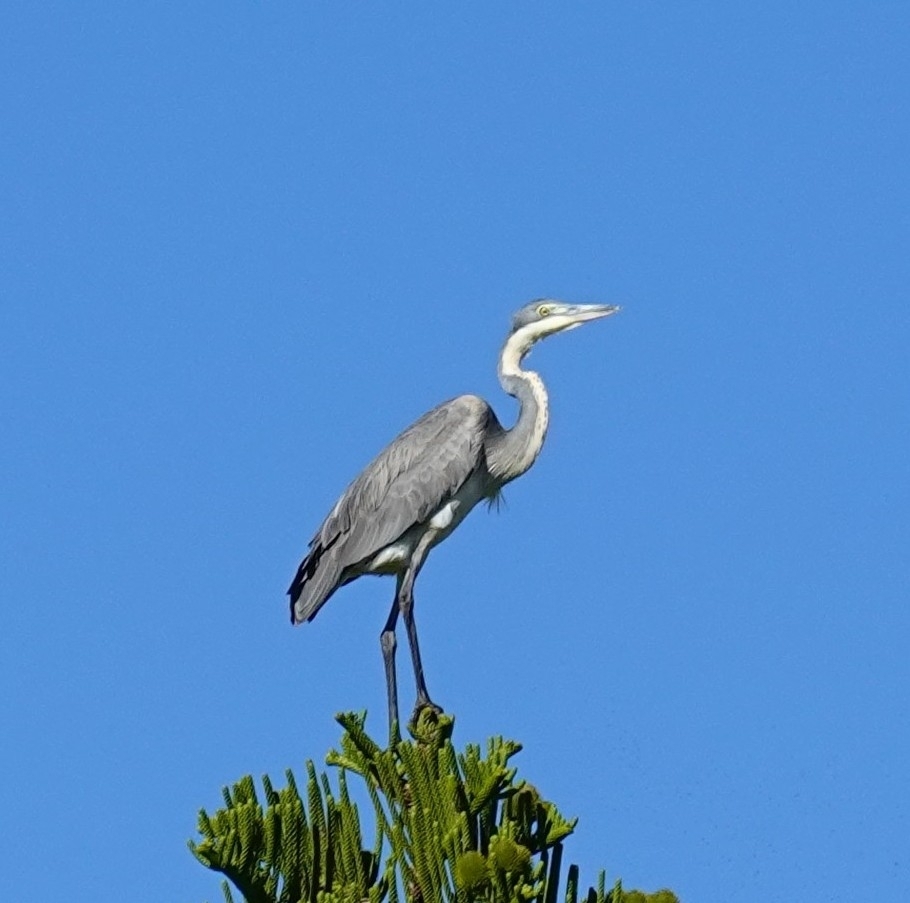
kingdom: Animalia
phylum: Chordata
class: Aves
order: Pelecaniformes
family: Ardeidae
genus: Ardea
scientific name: Ardea melanocephala
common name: Black-headed heron
